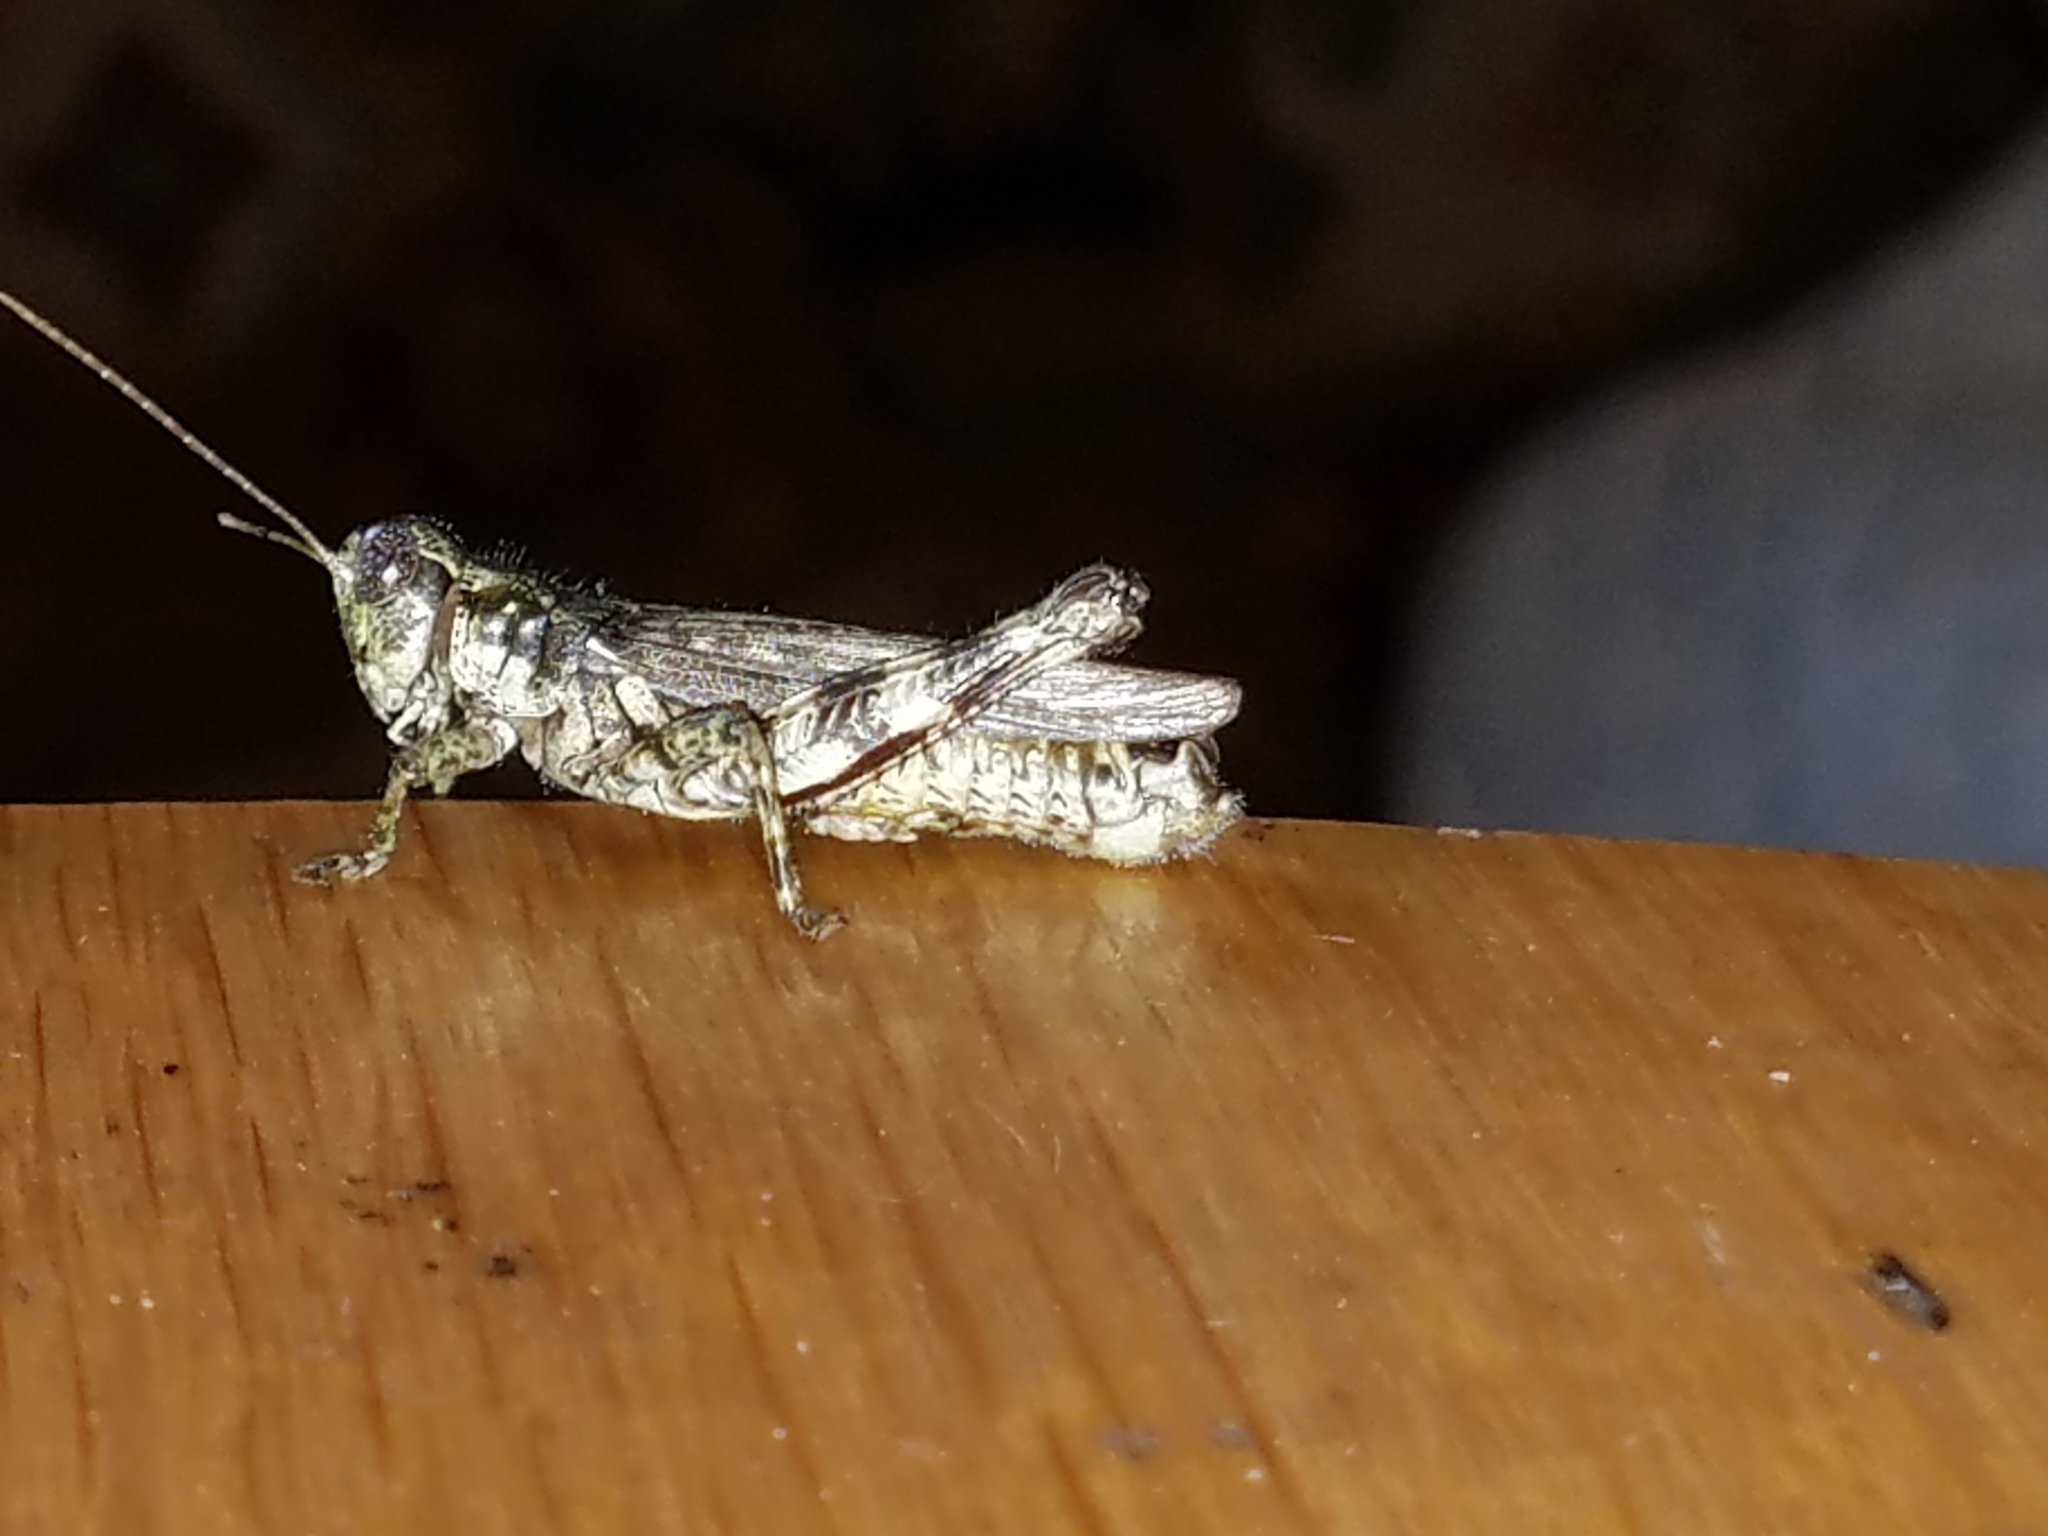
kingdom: Animalia
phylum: Arthropoda
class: Insecta
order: Orthoptera
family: Acrididae
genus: Melanoplus
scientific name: Melanoplus punctulatus
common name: Pine-tree spur-throat grasshopper
